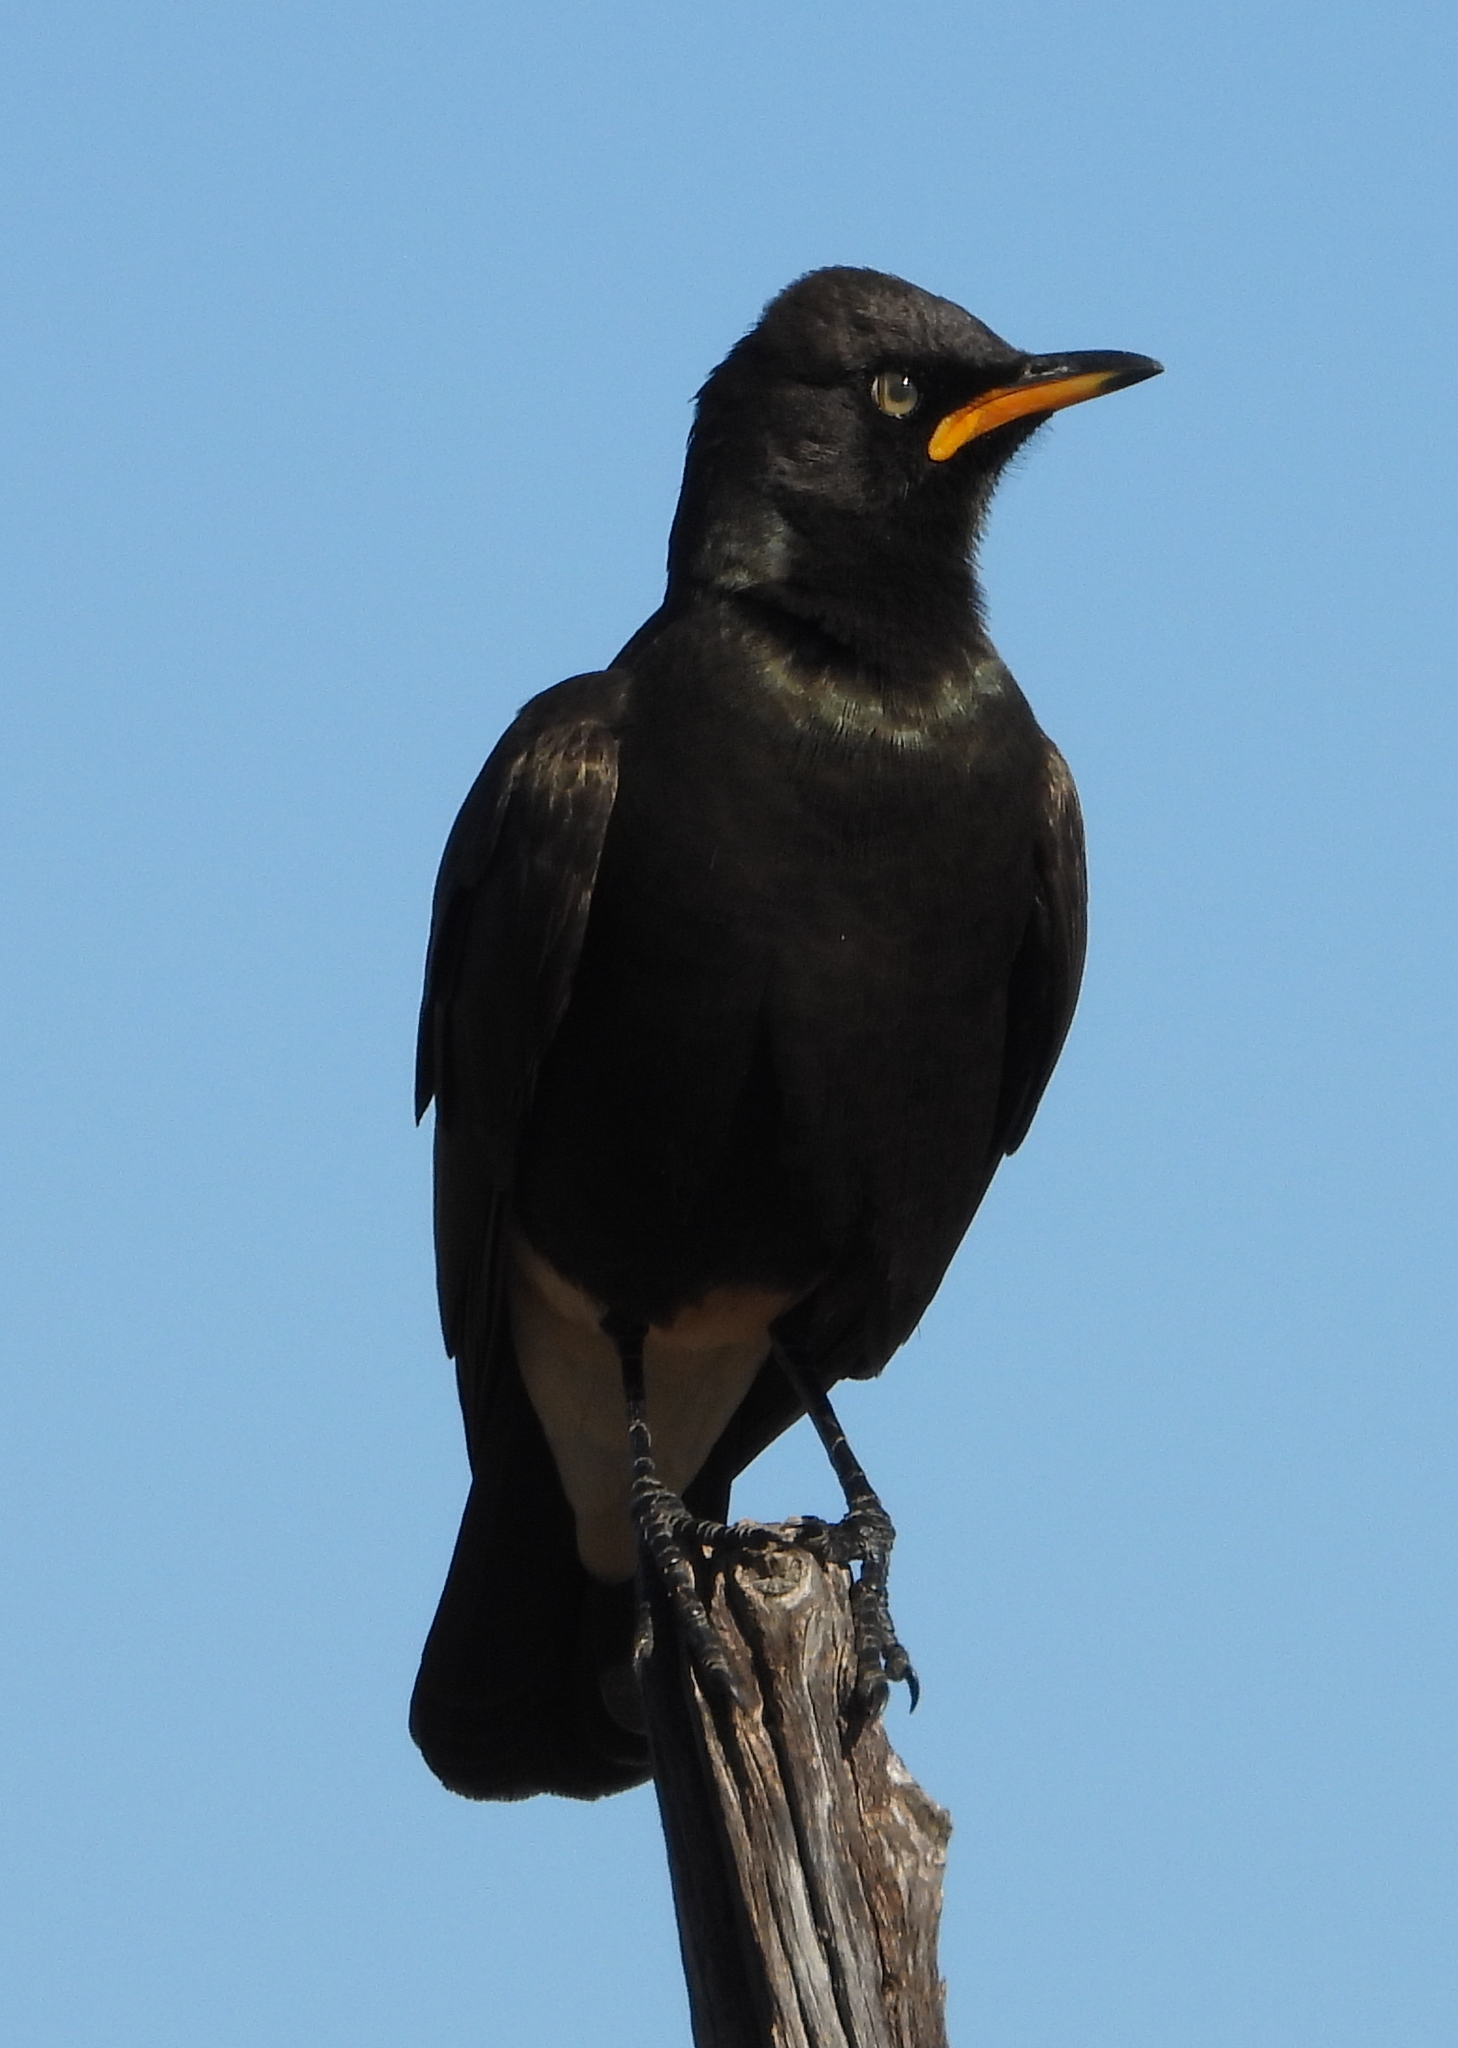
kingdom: Animalia
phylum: Chordata
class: Aves
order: Passeriformes
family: Sturnidae
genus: Lamprotornis
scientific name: Lamprotornis bicolor
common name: Pied starling
